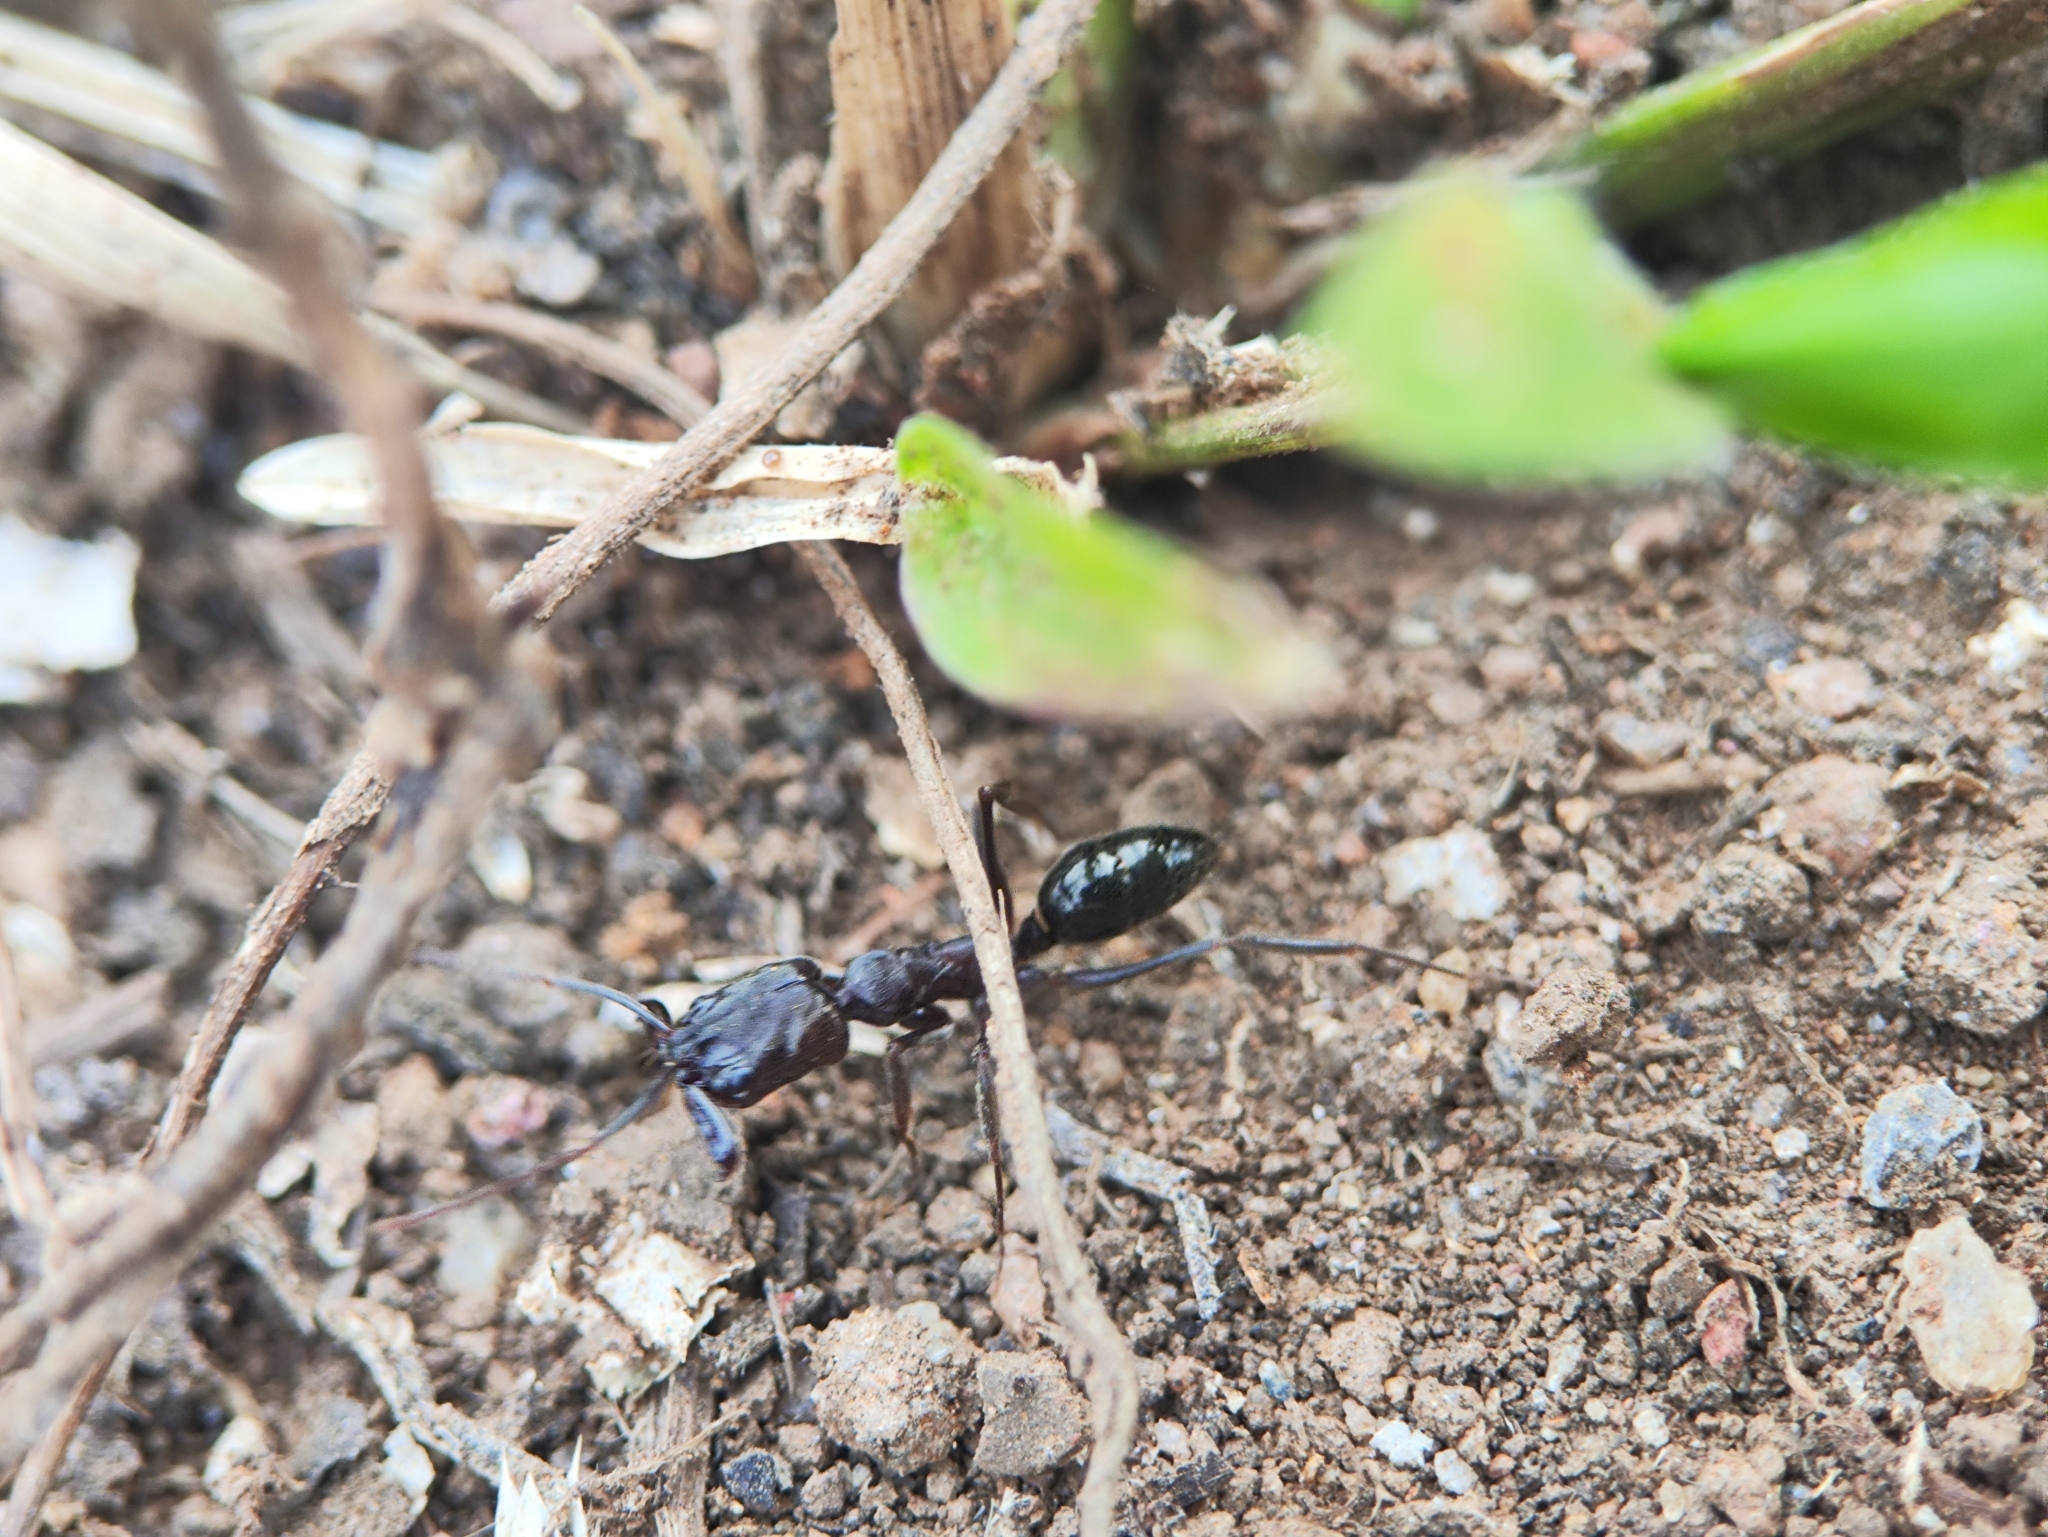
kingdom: Animalia
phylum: Arthropoda
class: Insecta
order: Hymenoptera
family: Formicidae
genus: Odontomachus
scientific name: Odontomachus simillimus
